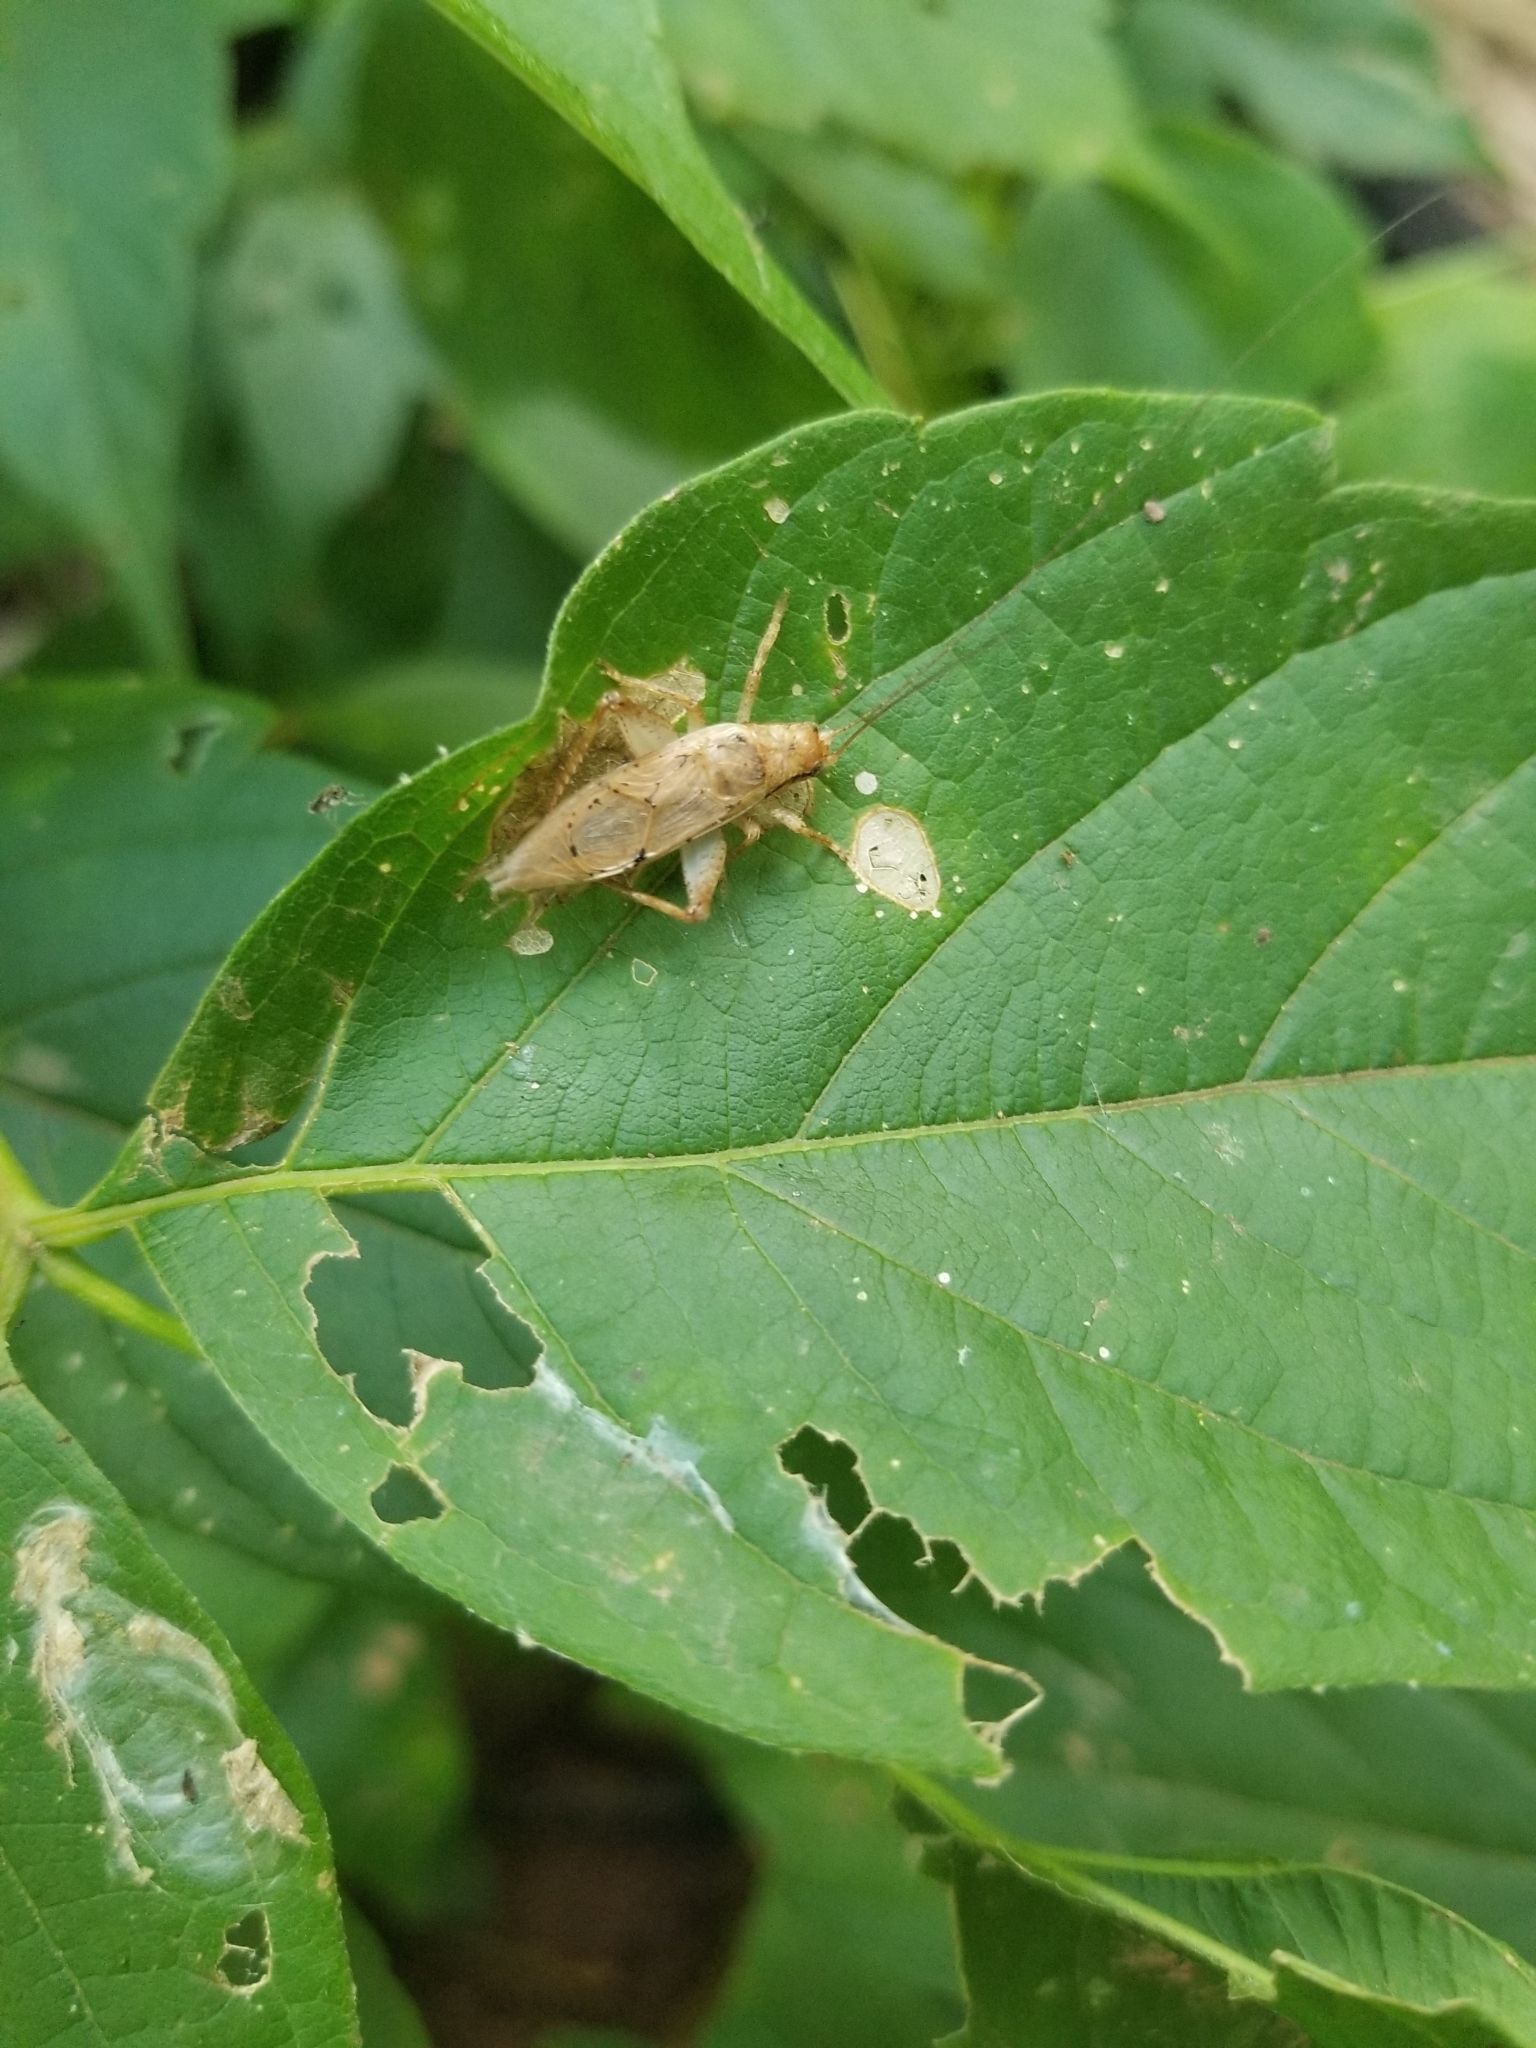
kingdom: Animalia
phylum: Arthropoda
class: Insecta
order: Orthoptera
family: Gryllidae
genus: Hapithus
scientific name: Hapithus saltator
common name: Jumping bush cricket
